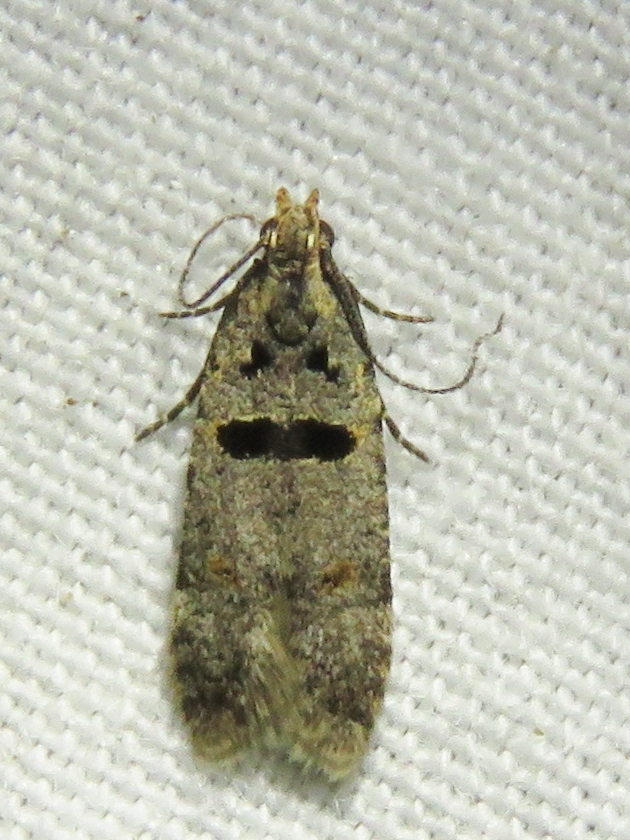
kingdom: Animalia
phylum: Arthropoda
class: Insecta
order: Lepidoptera
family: Gelechiidae
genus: Deltophora
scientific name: Deltophora glandiferella
